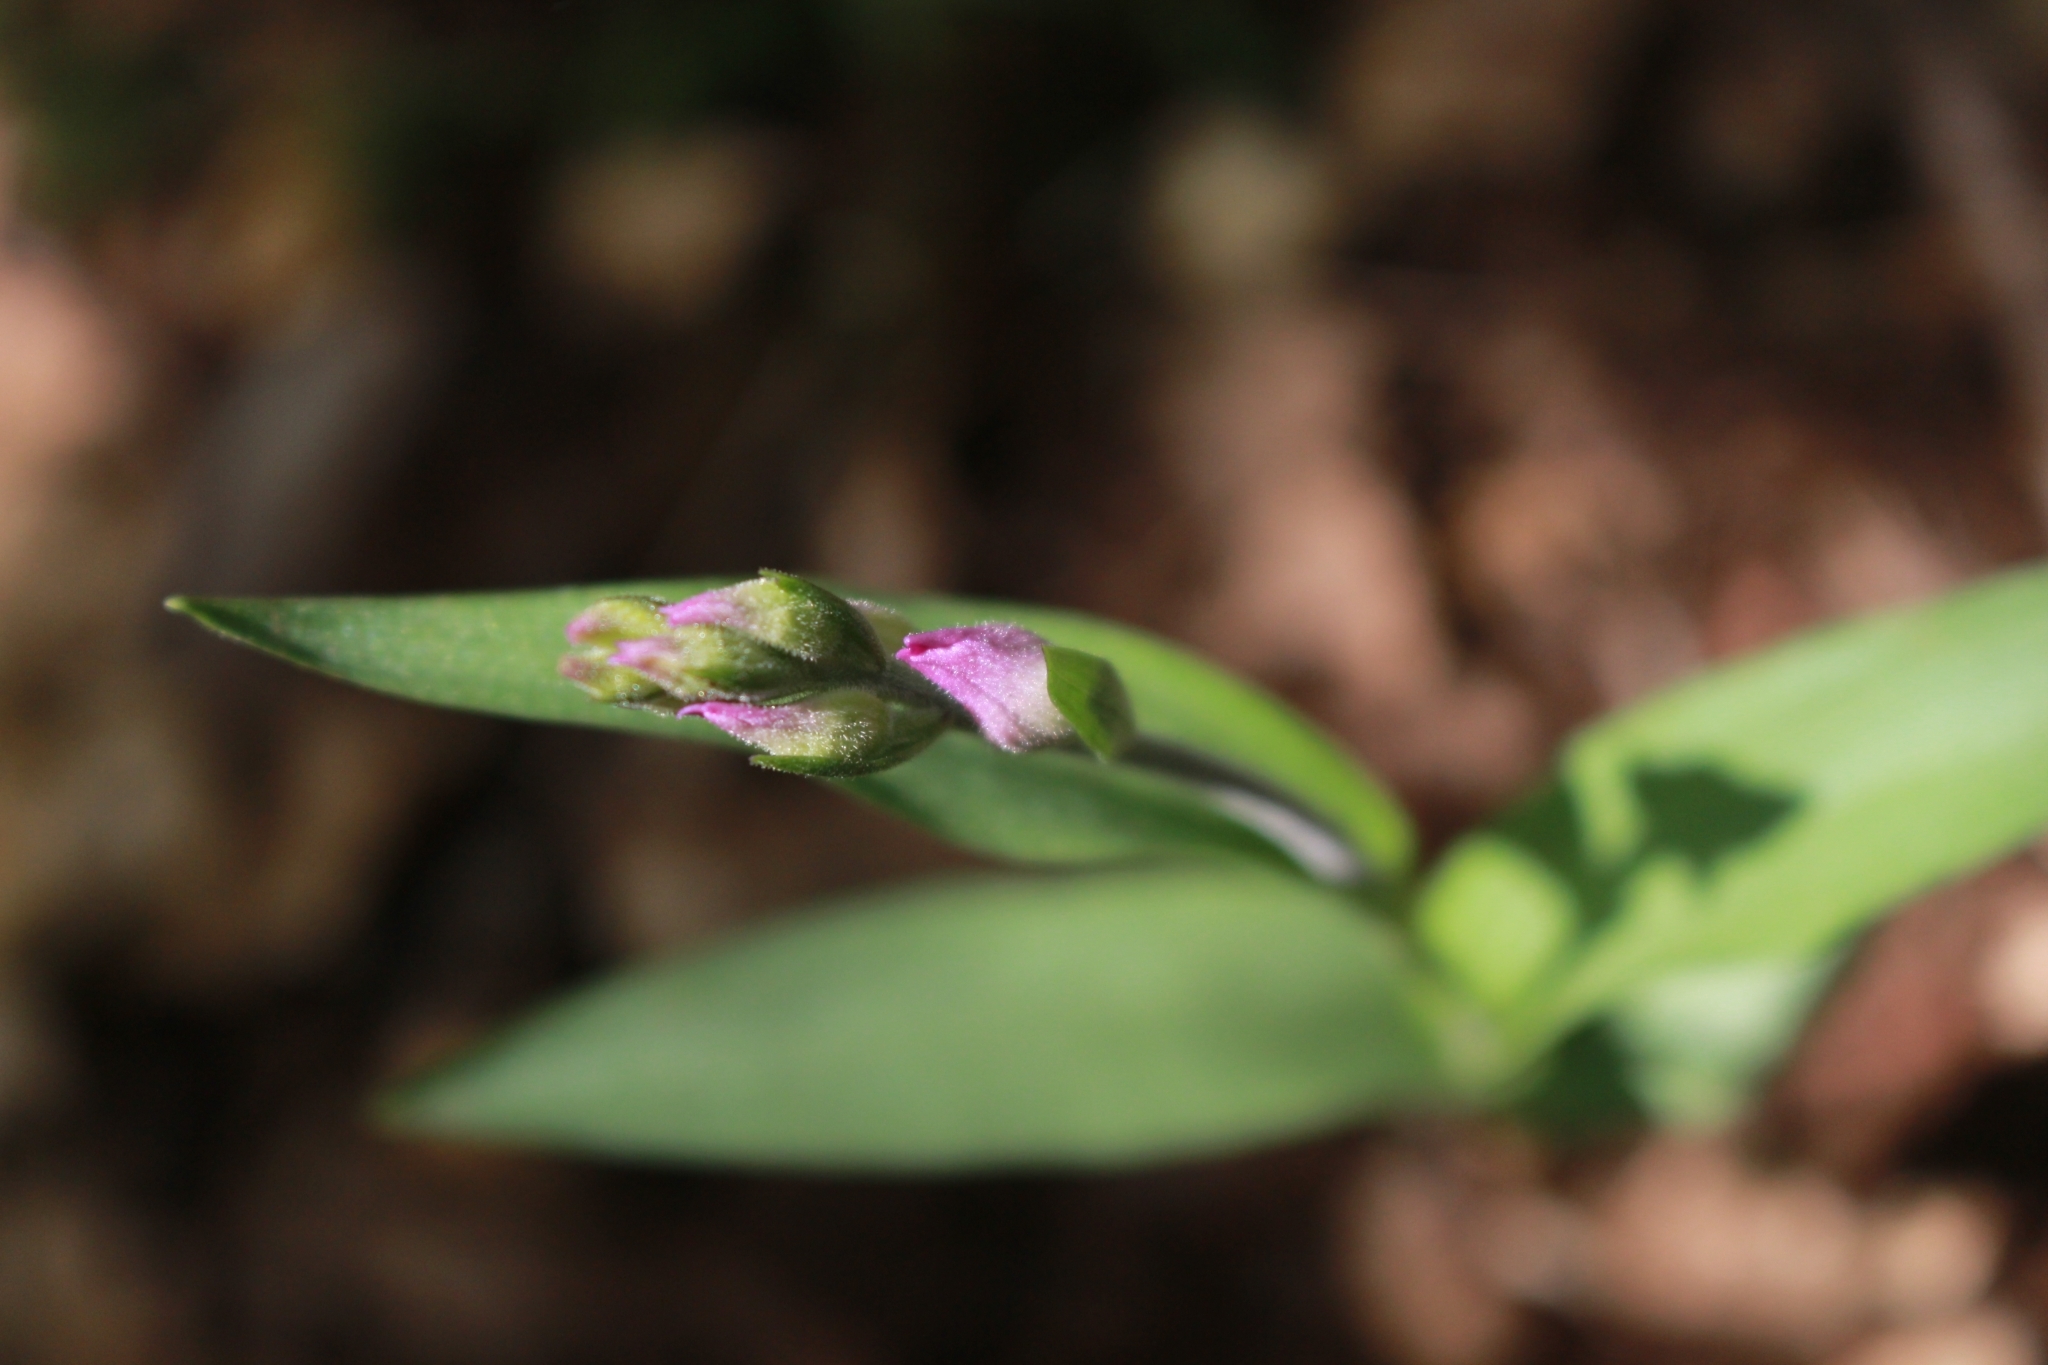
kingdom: Plantae
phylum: Tracheophyta
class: Liliopsida
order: Asparagales
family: Orchidaceae
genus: Cephalanthera
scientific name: Cephalanthera rubra
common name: Red helleborine
